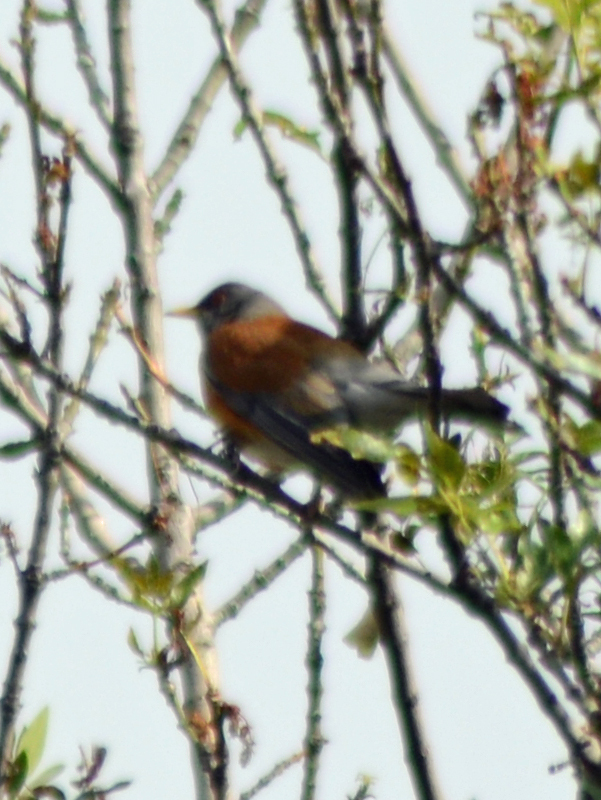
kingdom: Animalia
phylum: Chordata
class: Aves
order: Passeriformes
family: Turdidae
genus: Turdus
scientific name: Turdus rufopalliatus
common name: Rufous-backed robin
